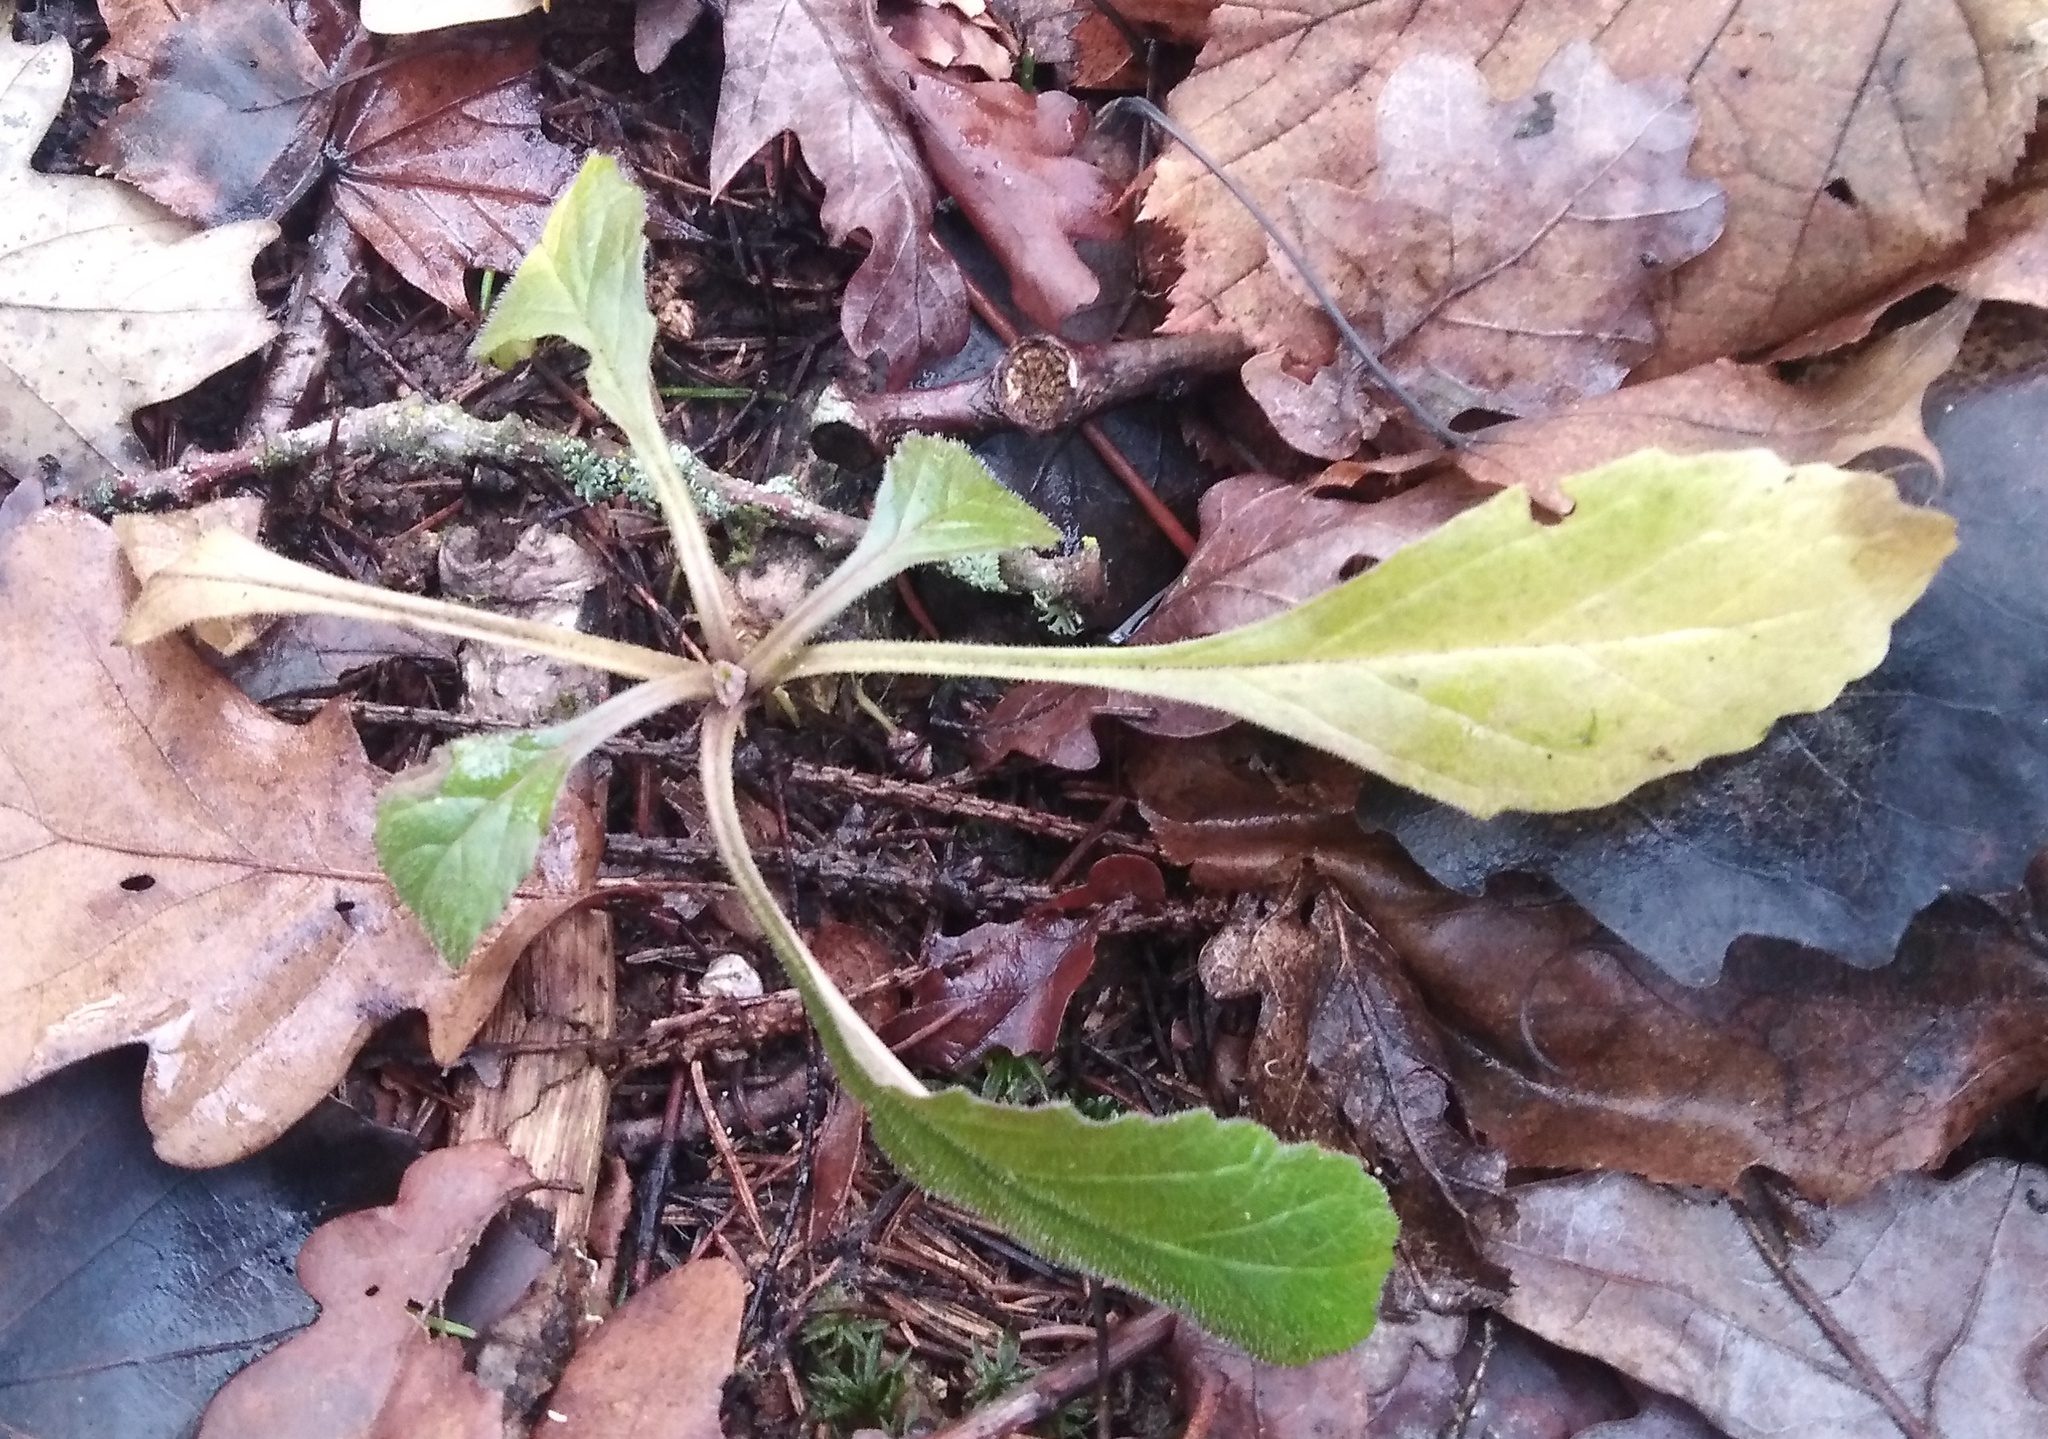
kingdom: Plantae
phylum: Tracheophyta
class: Magnoliopsida
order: Lamiales
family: Lamiaceae
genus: Ajuga
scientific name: Ajuga reptans
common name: Bugle
